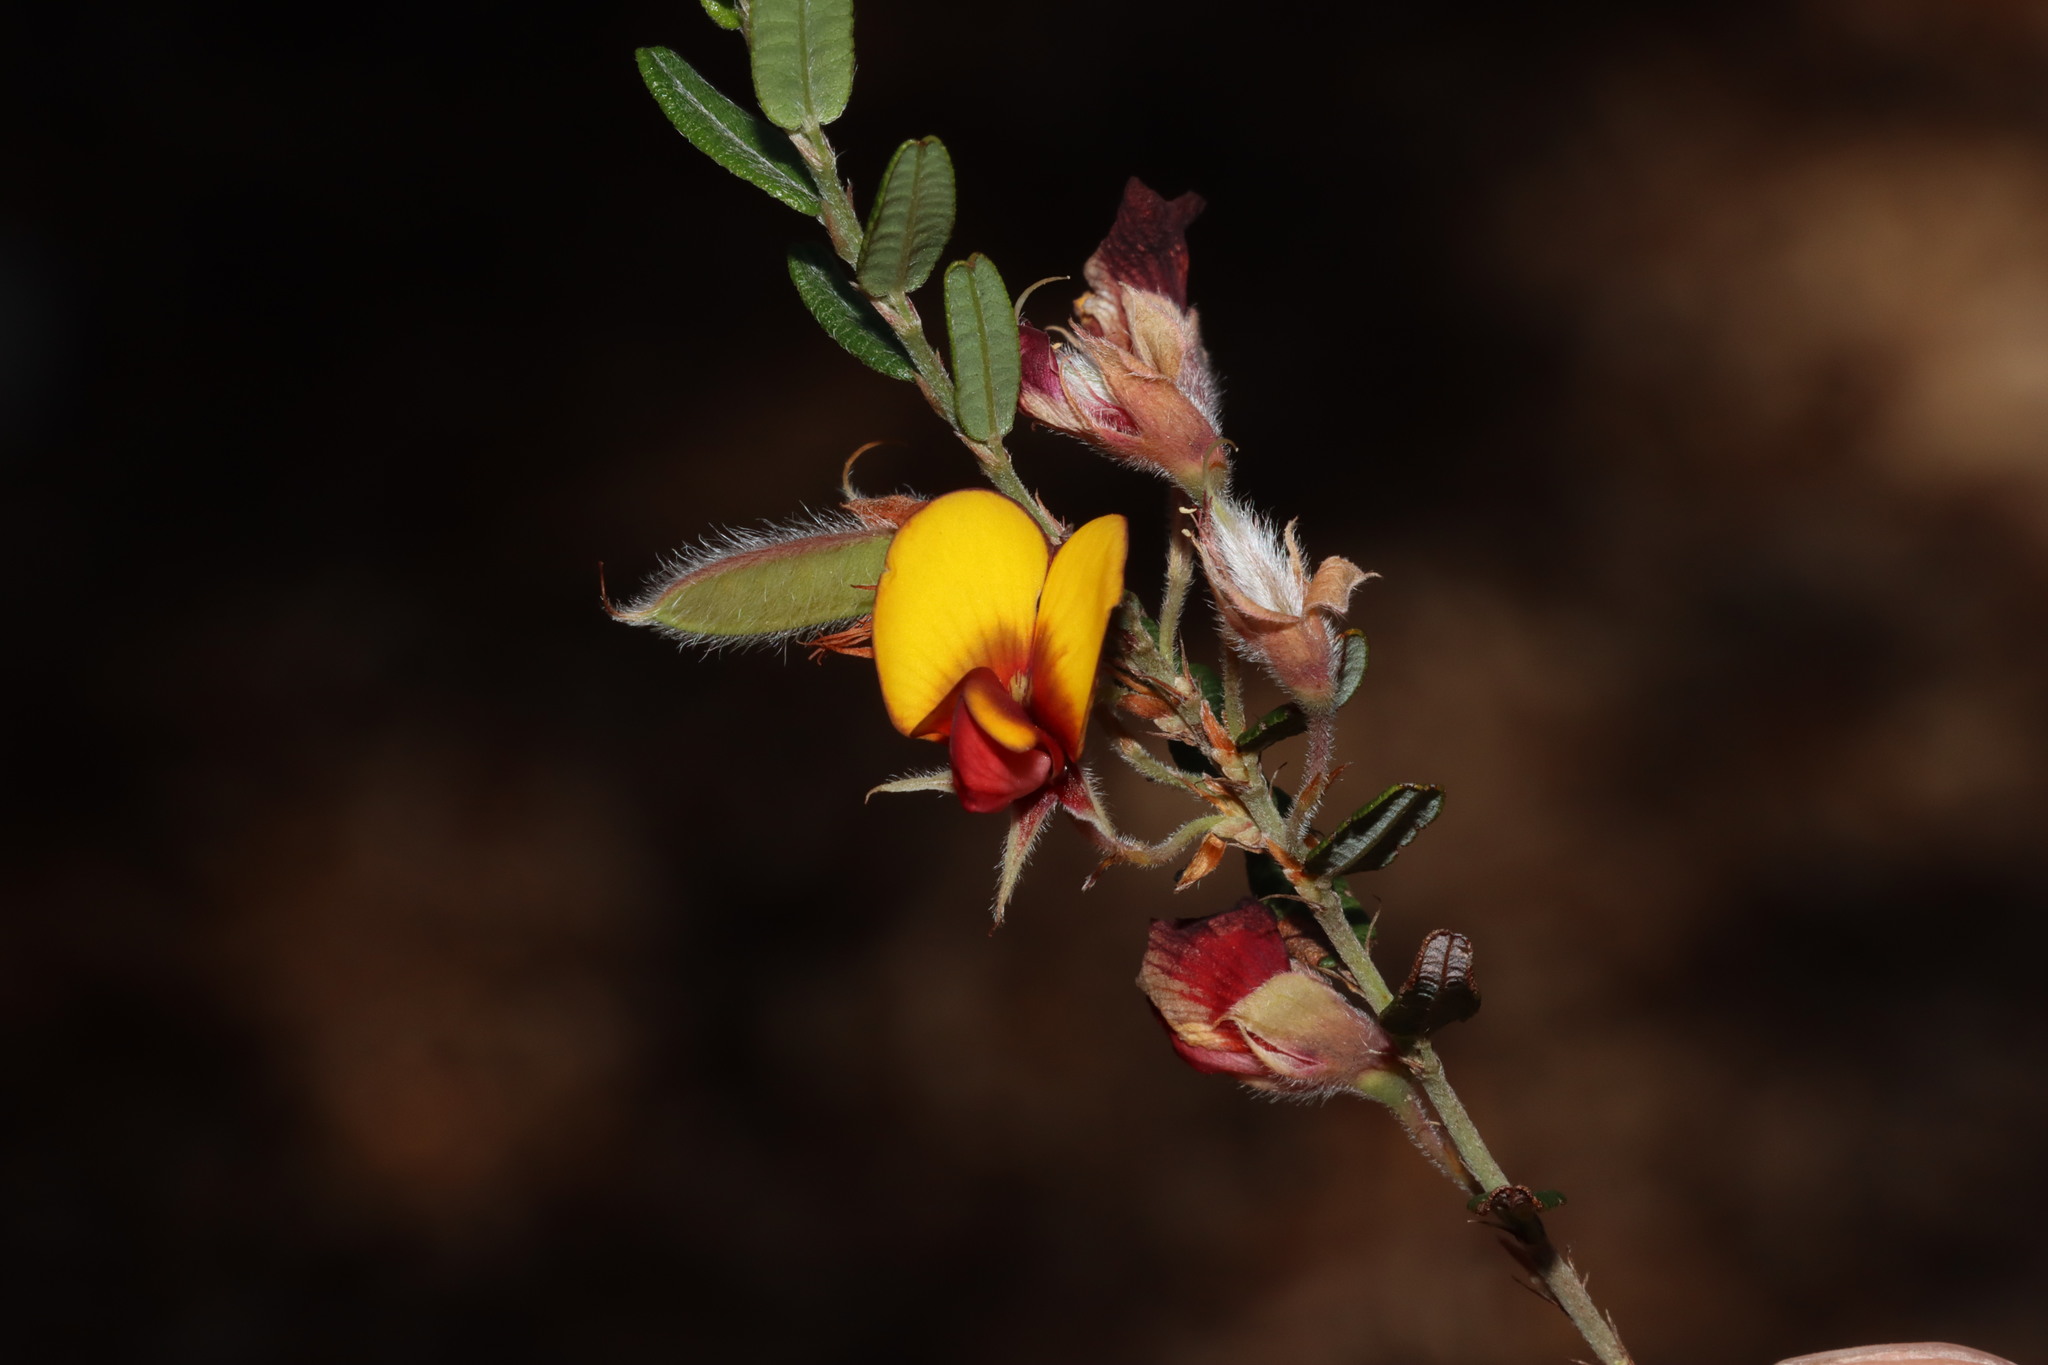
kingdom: Plantae
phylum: Tracheophyta
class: Magnoliopsida
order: Fabales
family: Fabaceae
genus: Bossiaea
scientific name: Bossiaea eriocarpa
